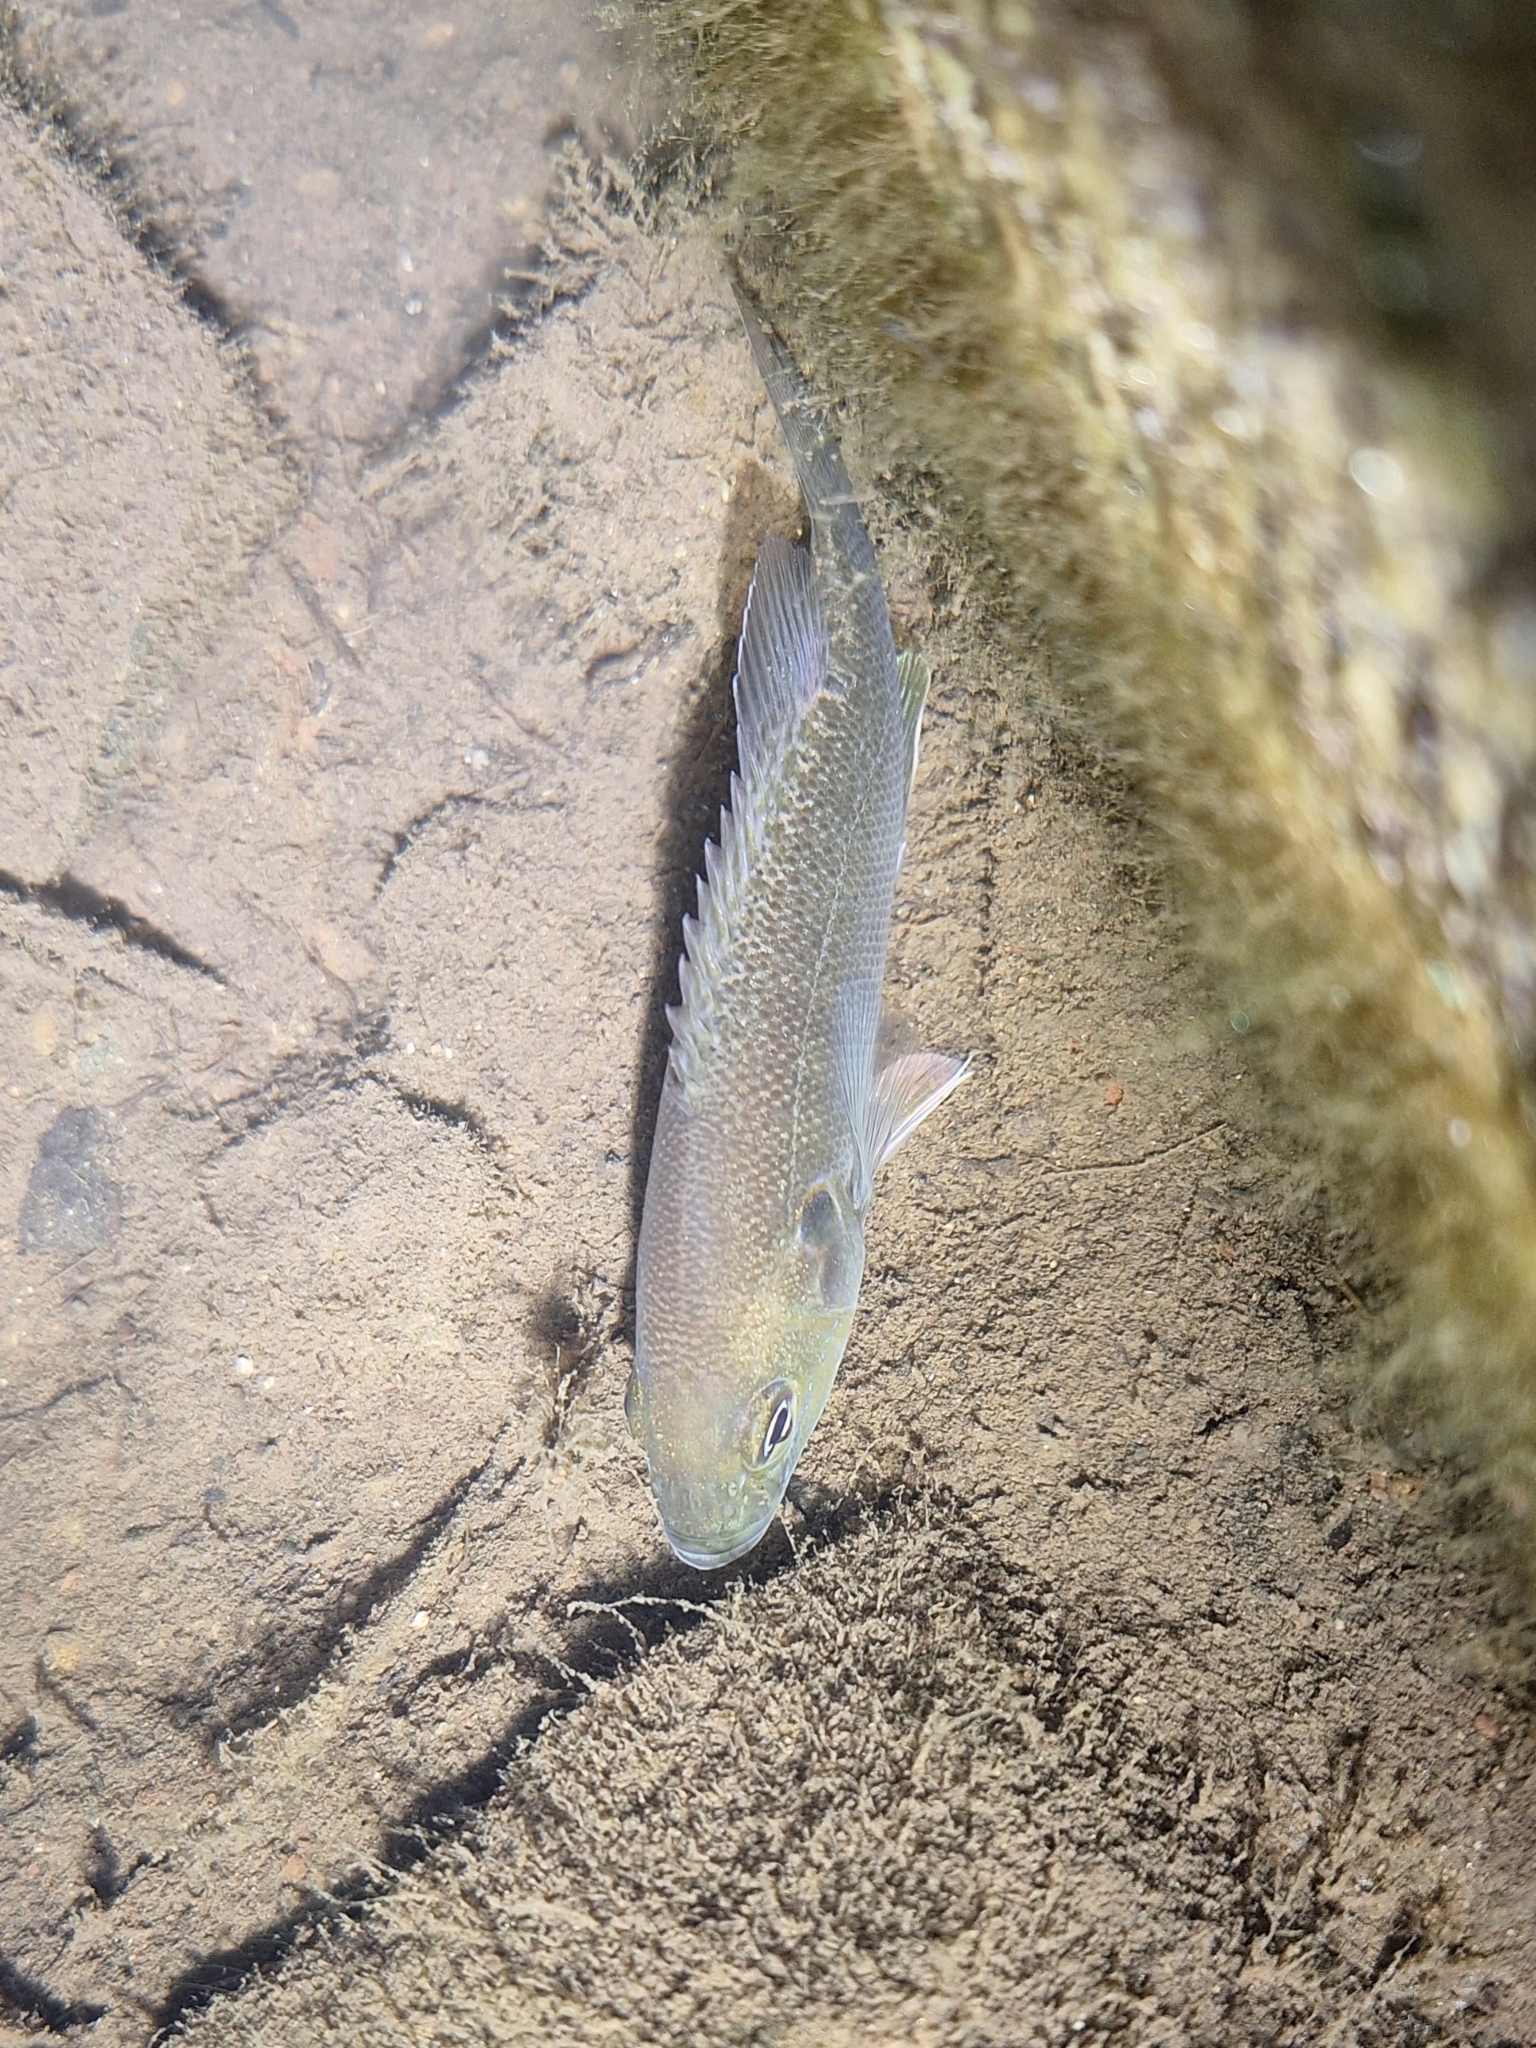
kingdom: Animalia
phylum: Chordata
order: Perciformes
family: Centrarchidae
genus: Lepomis
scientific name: Lepomis cyanellus
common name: Green sunfish
